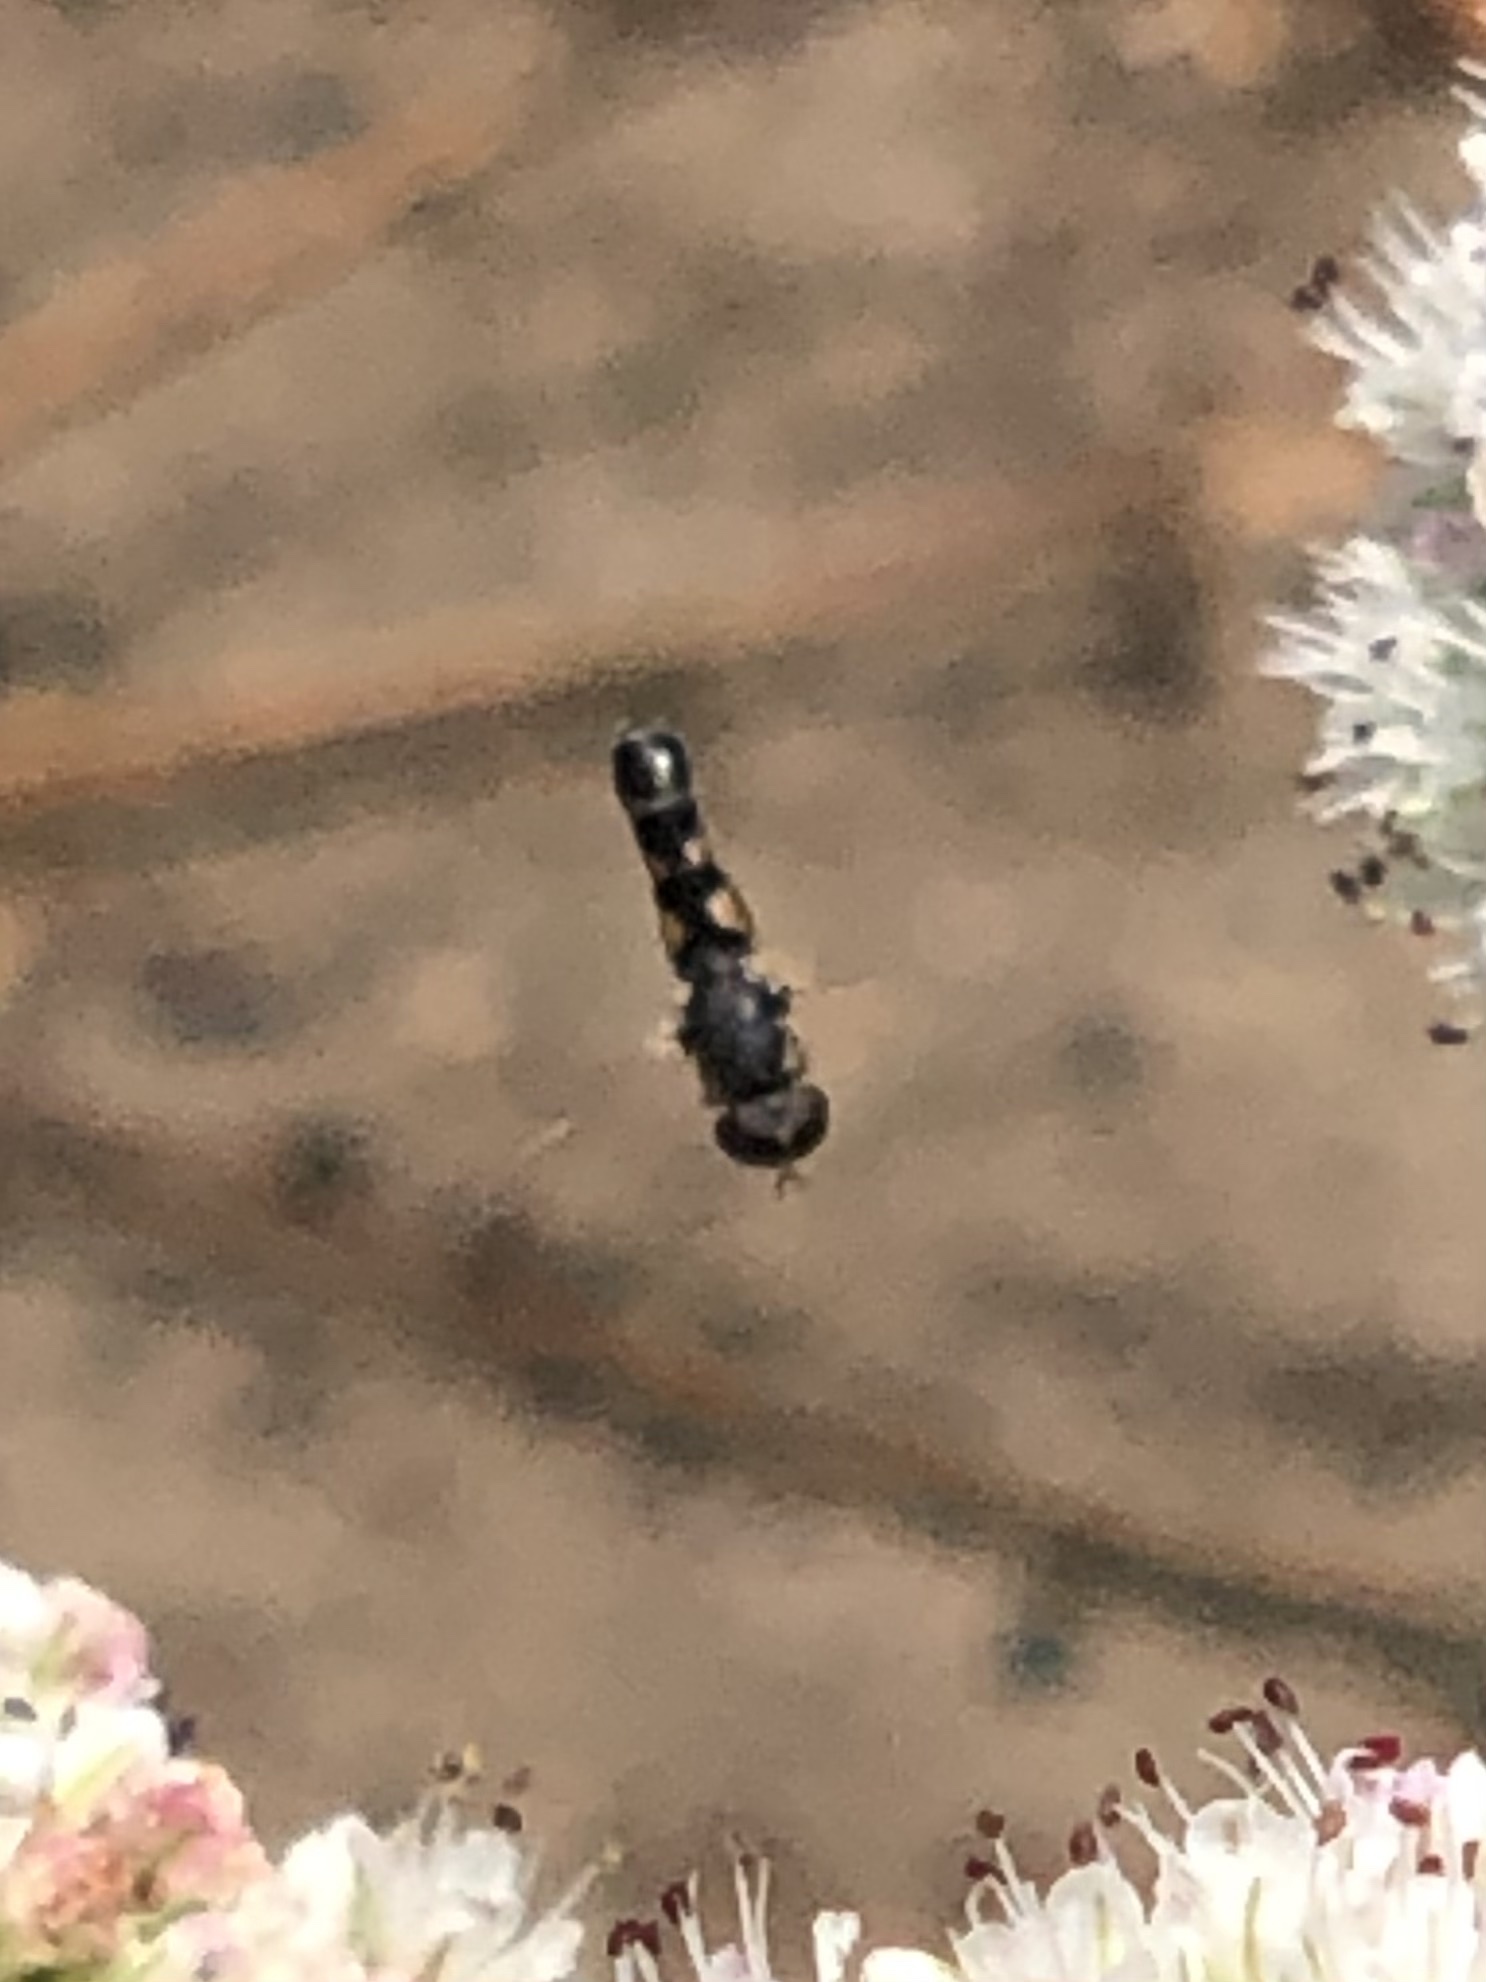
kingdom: Animalia
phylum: Arthropoda
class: Insecta
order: Diptera
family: Syrphidae
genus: Syritta
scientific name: Syritta pipiens
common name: Hover fly
